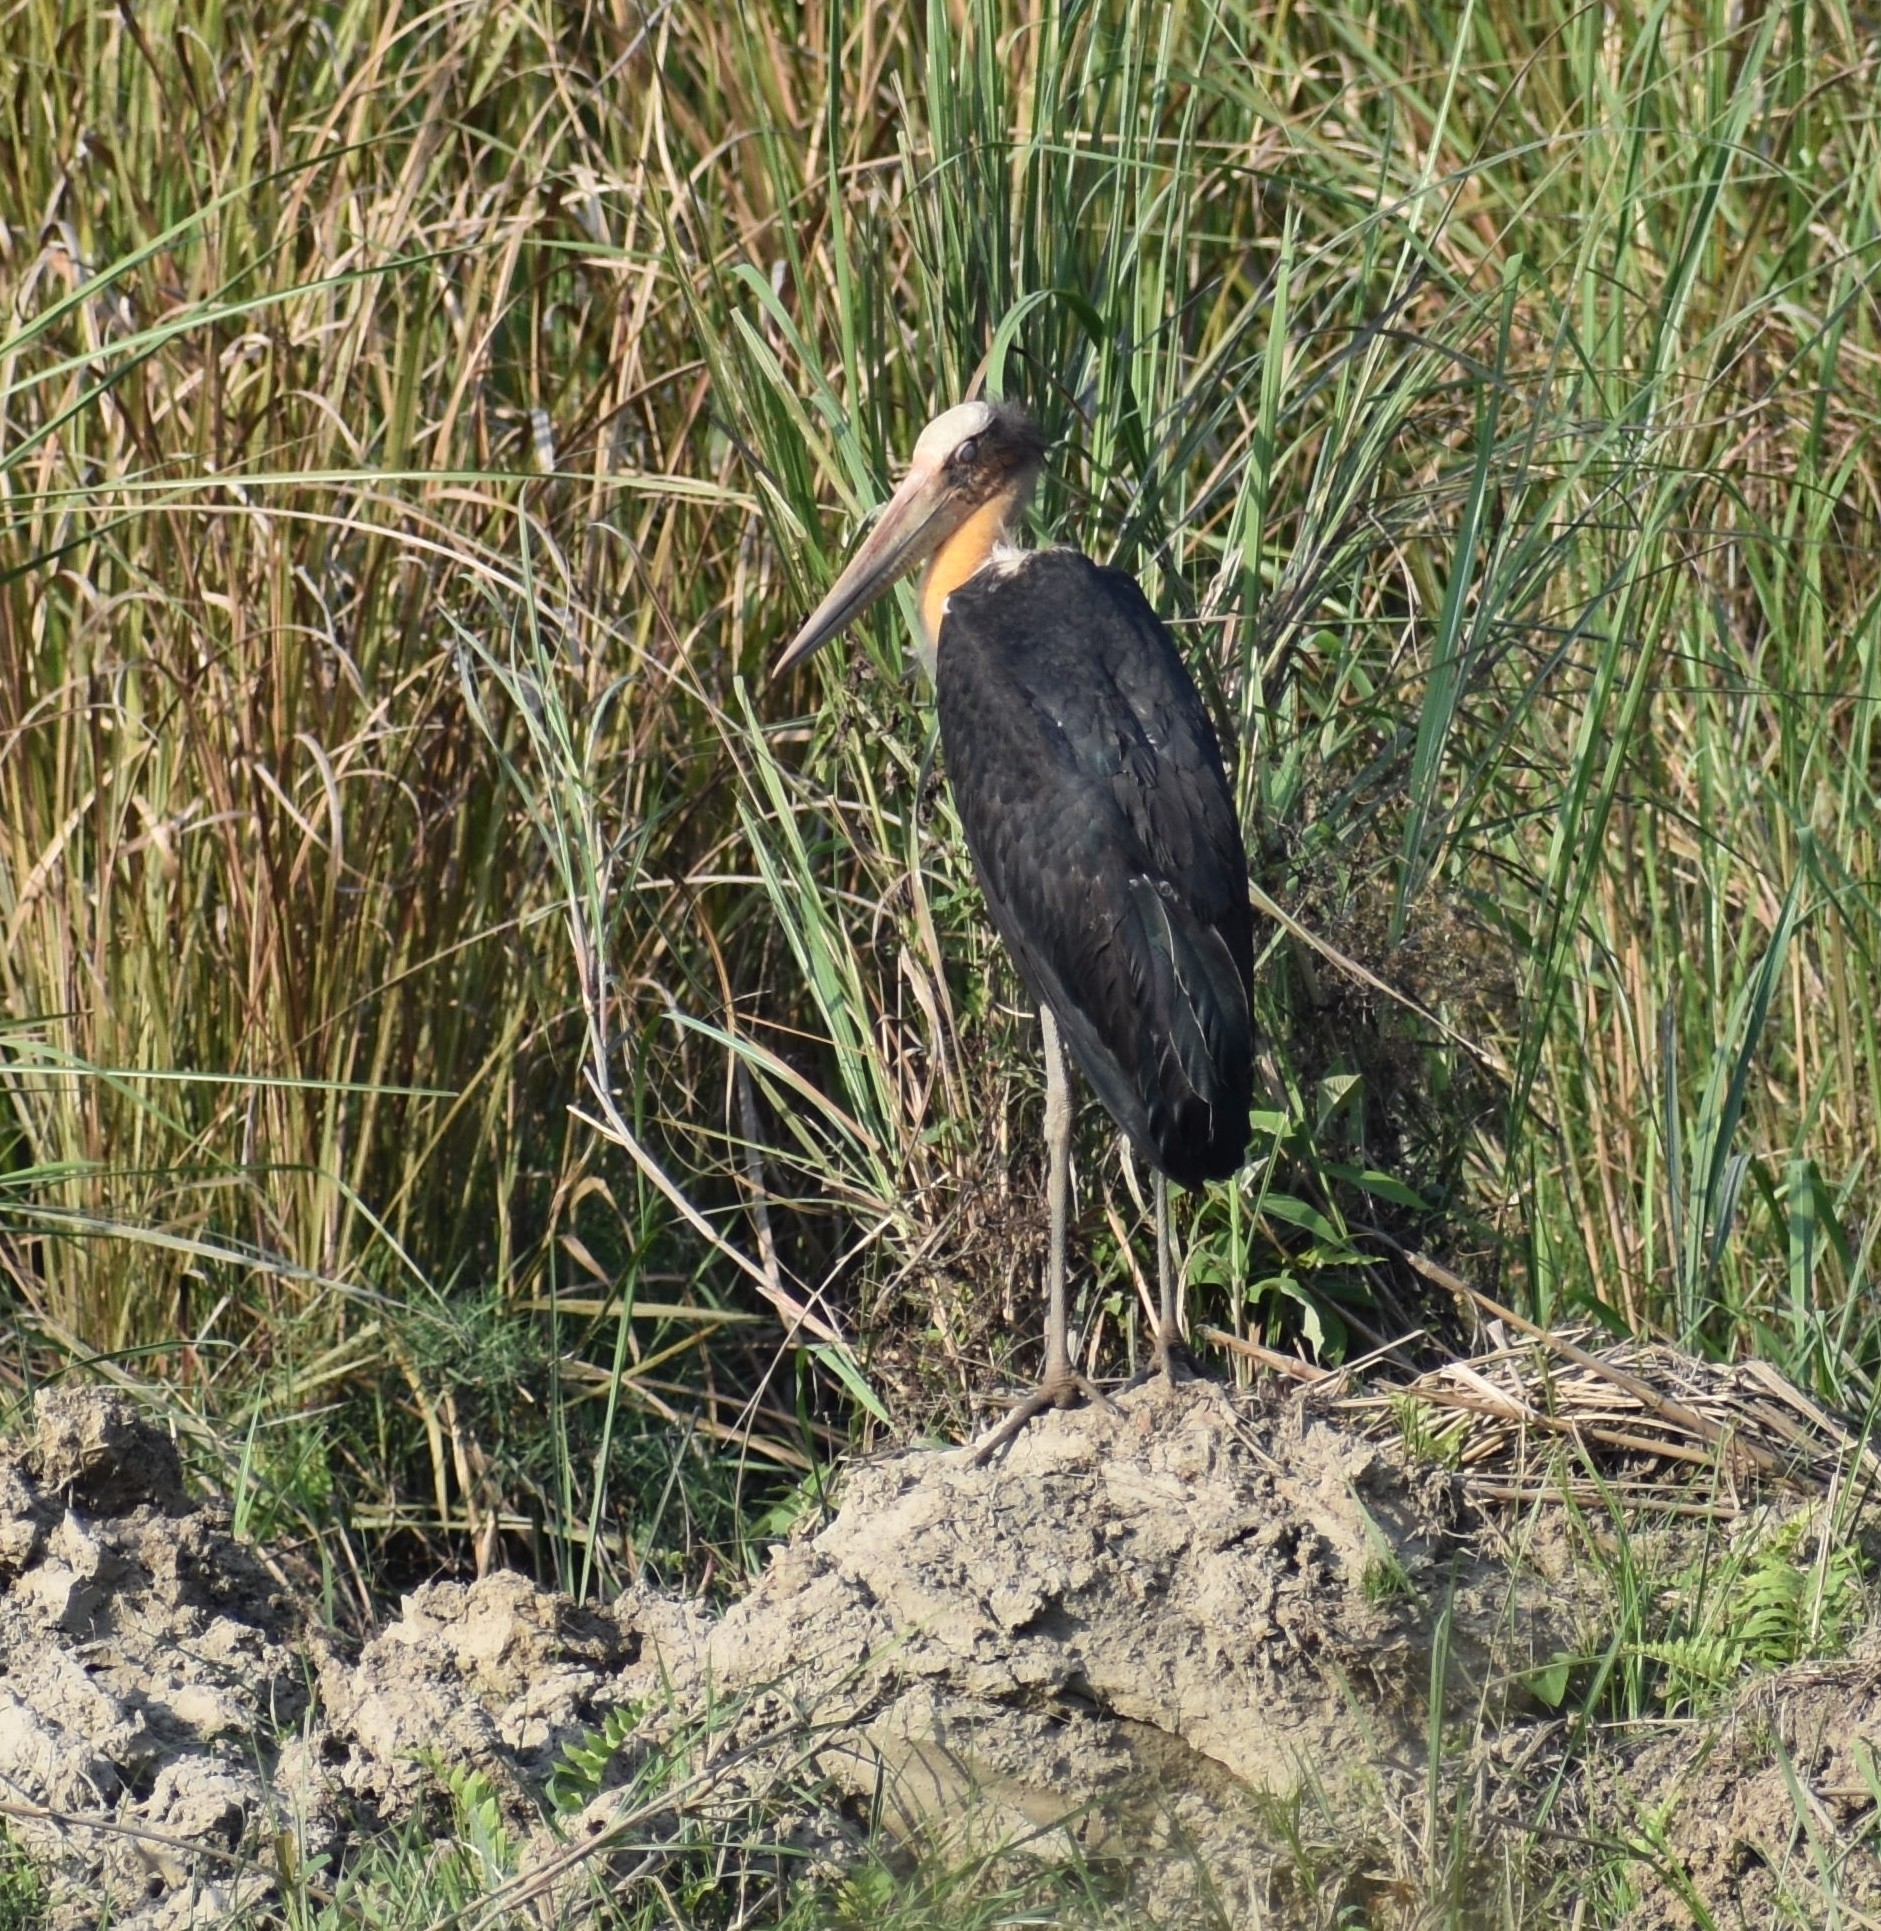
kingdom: Animalia
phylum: Chordata
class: Aves
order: Ciconiiformes
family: Ciconiidae
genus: Leptoptilos
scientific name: Leptoptilos javanicus
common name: Lesser adjutant
